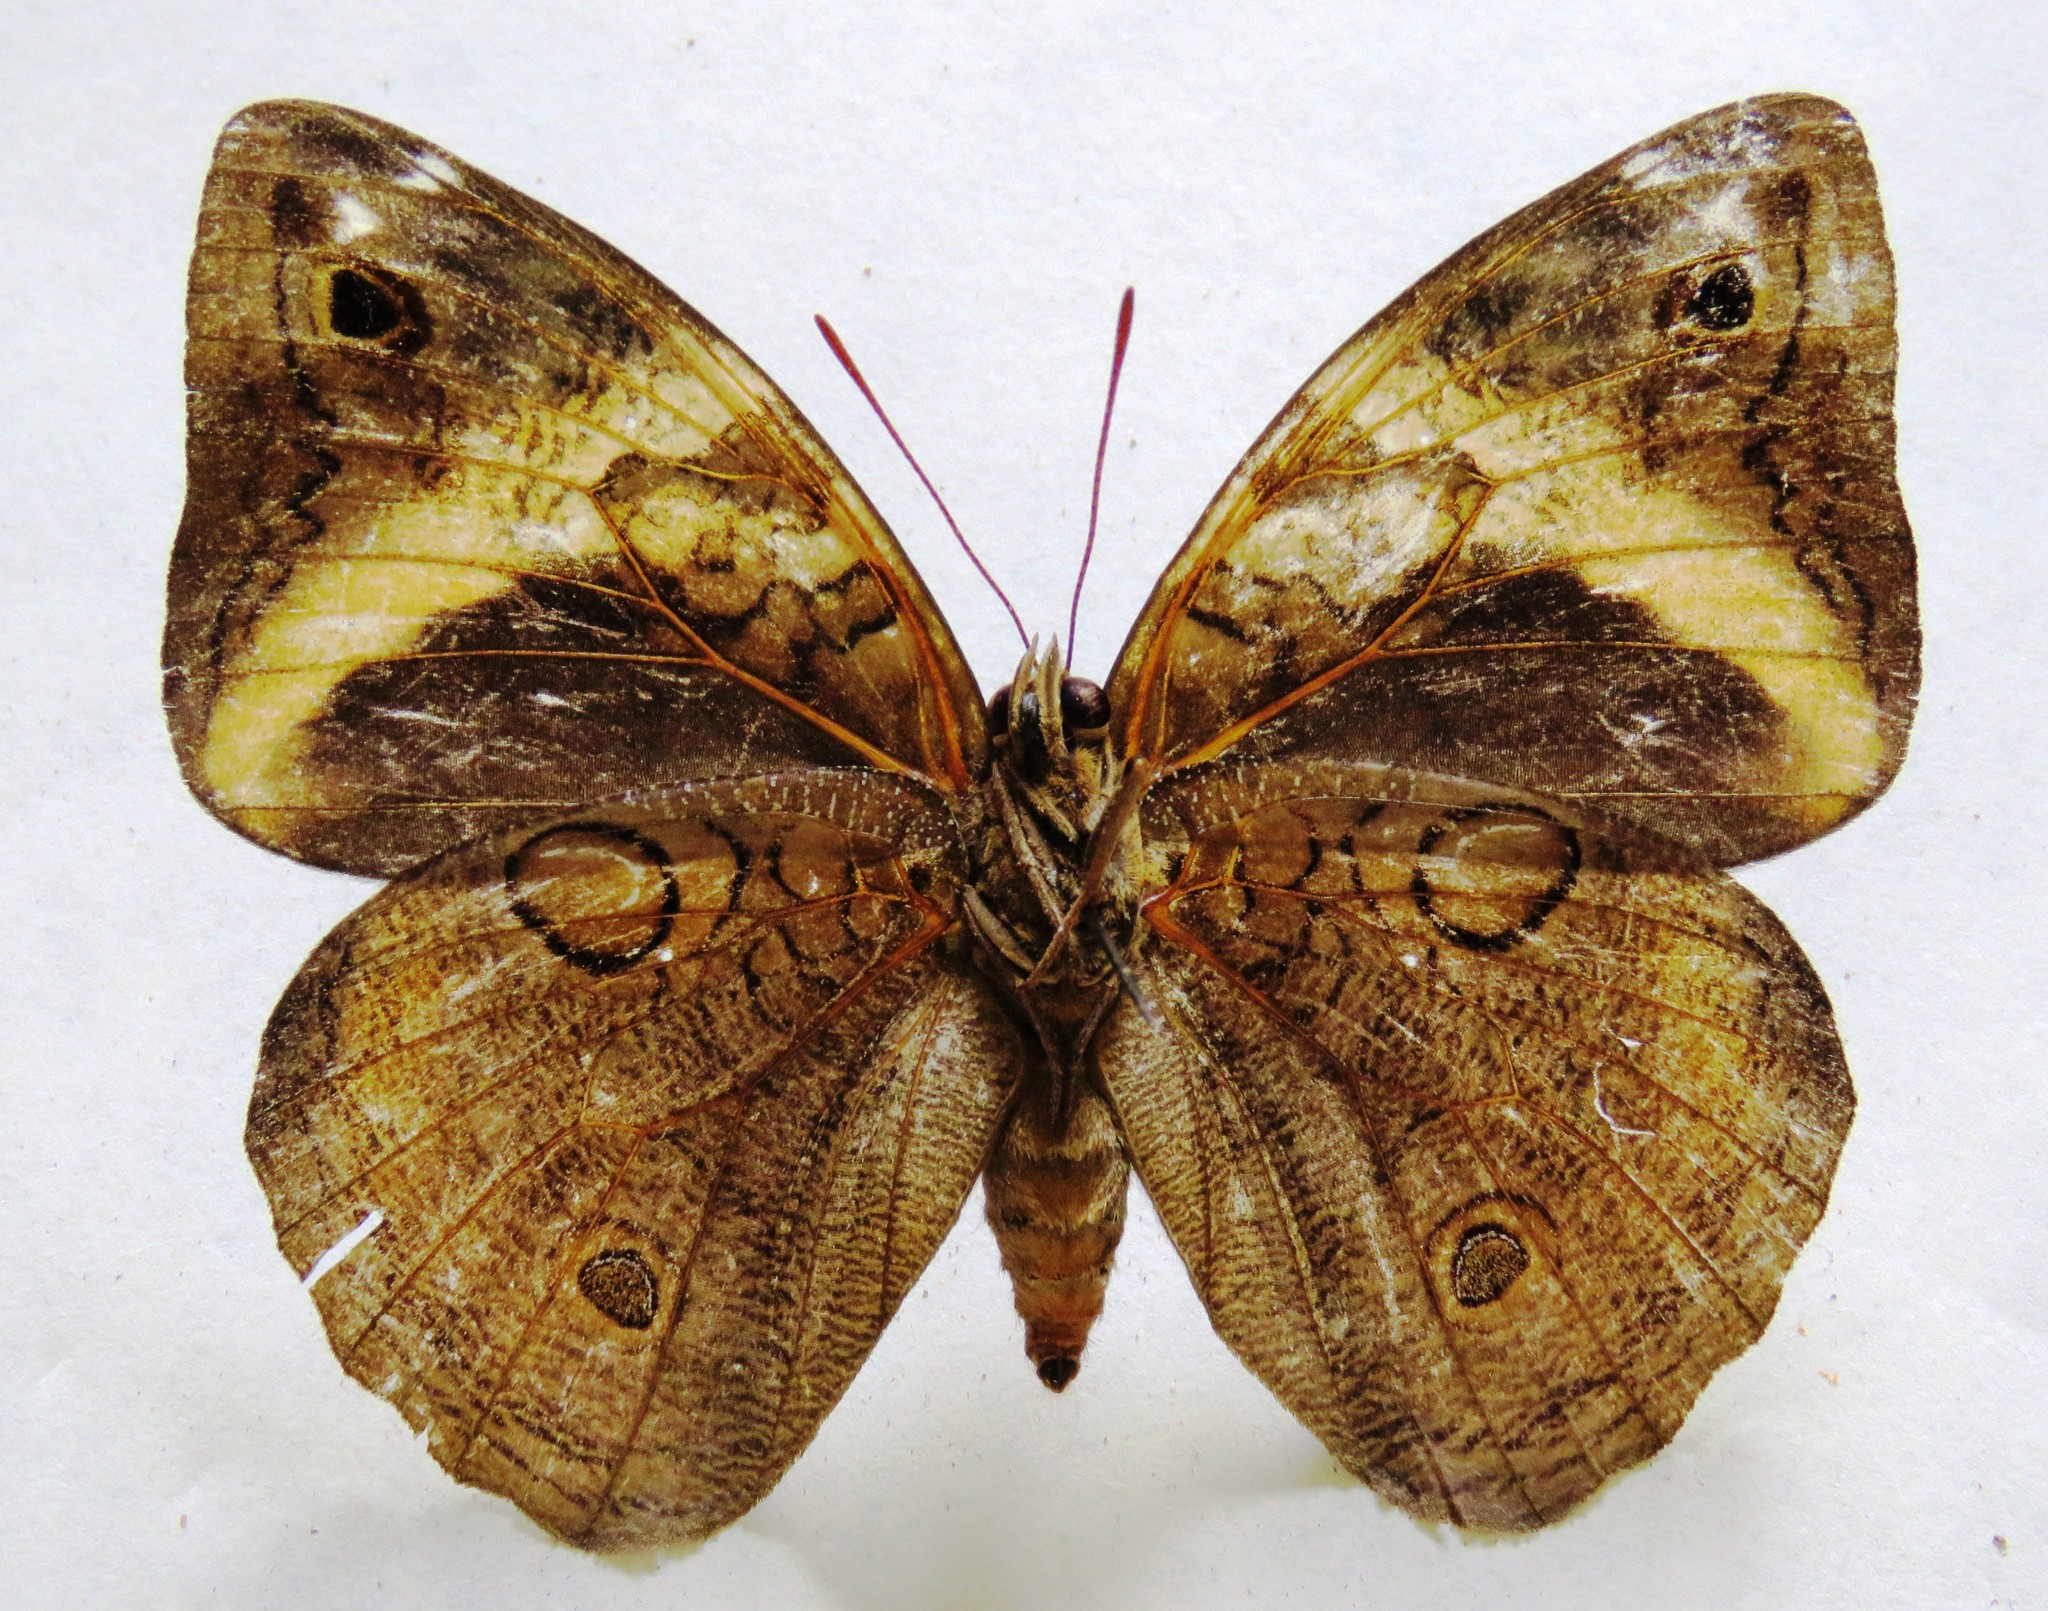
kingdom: Animalia
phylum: Arthropoda
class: Insecta
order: Lepidoptera
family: Nymphalidae
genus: Opsiphanes
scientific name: Opsiphanes cassina
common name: Split-banded owl-butterfly
